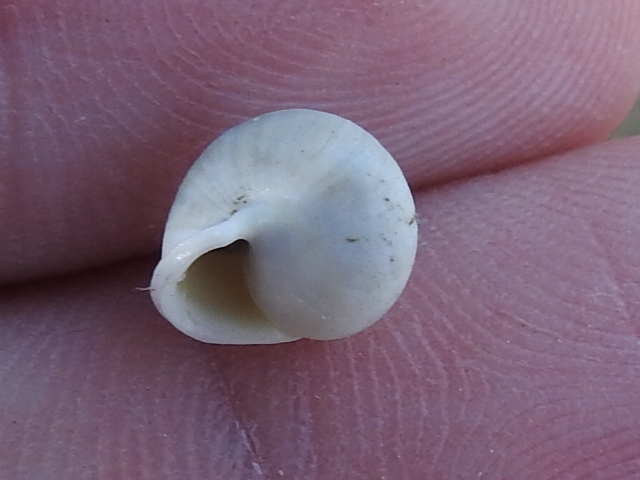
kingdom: Animalia
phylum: Mollusca
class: Gastropoda
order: Cycloneritida
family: Helicinidae
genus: Helicina
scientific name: Helicina orbiculata
